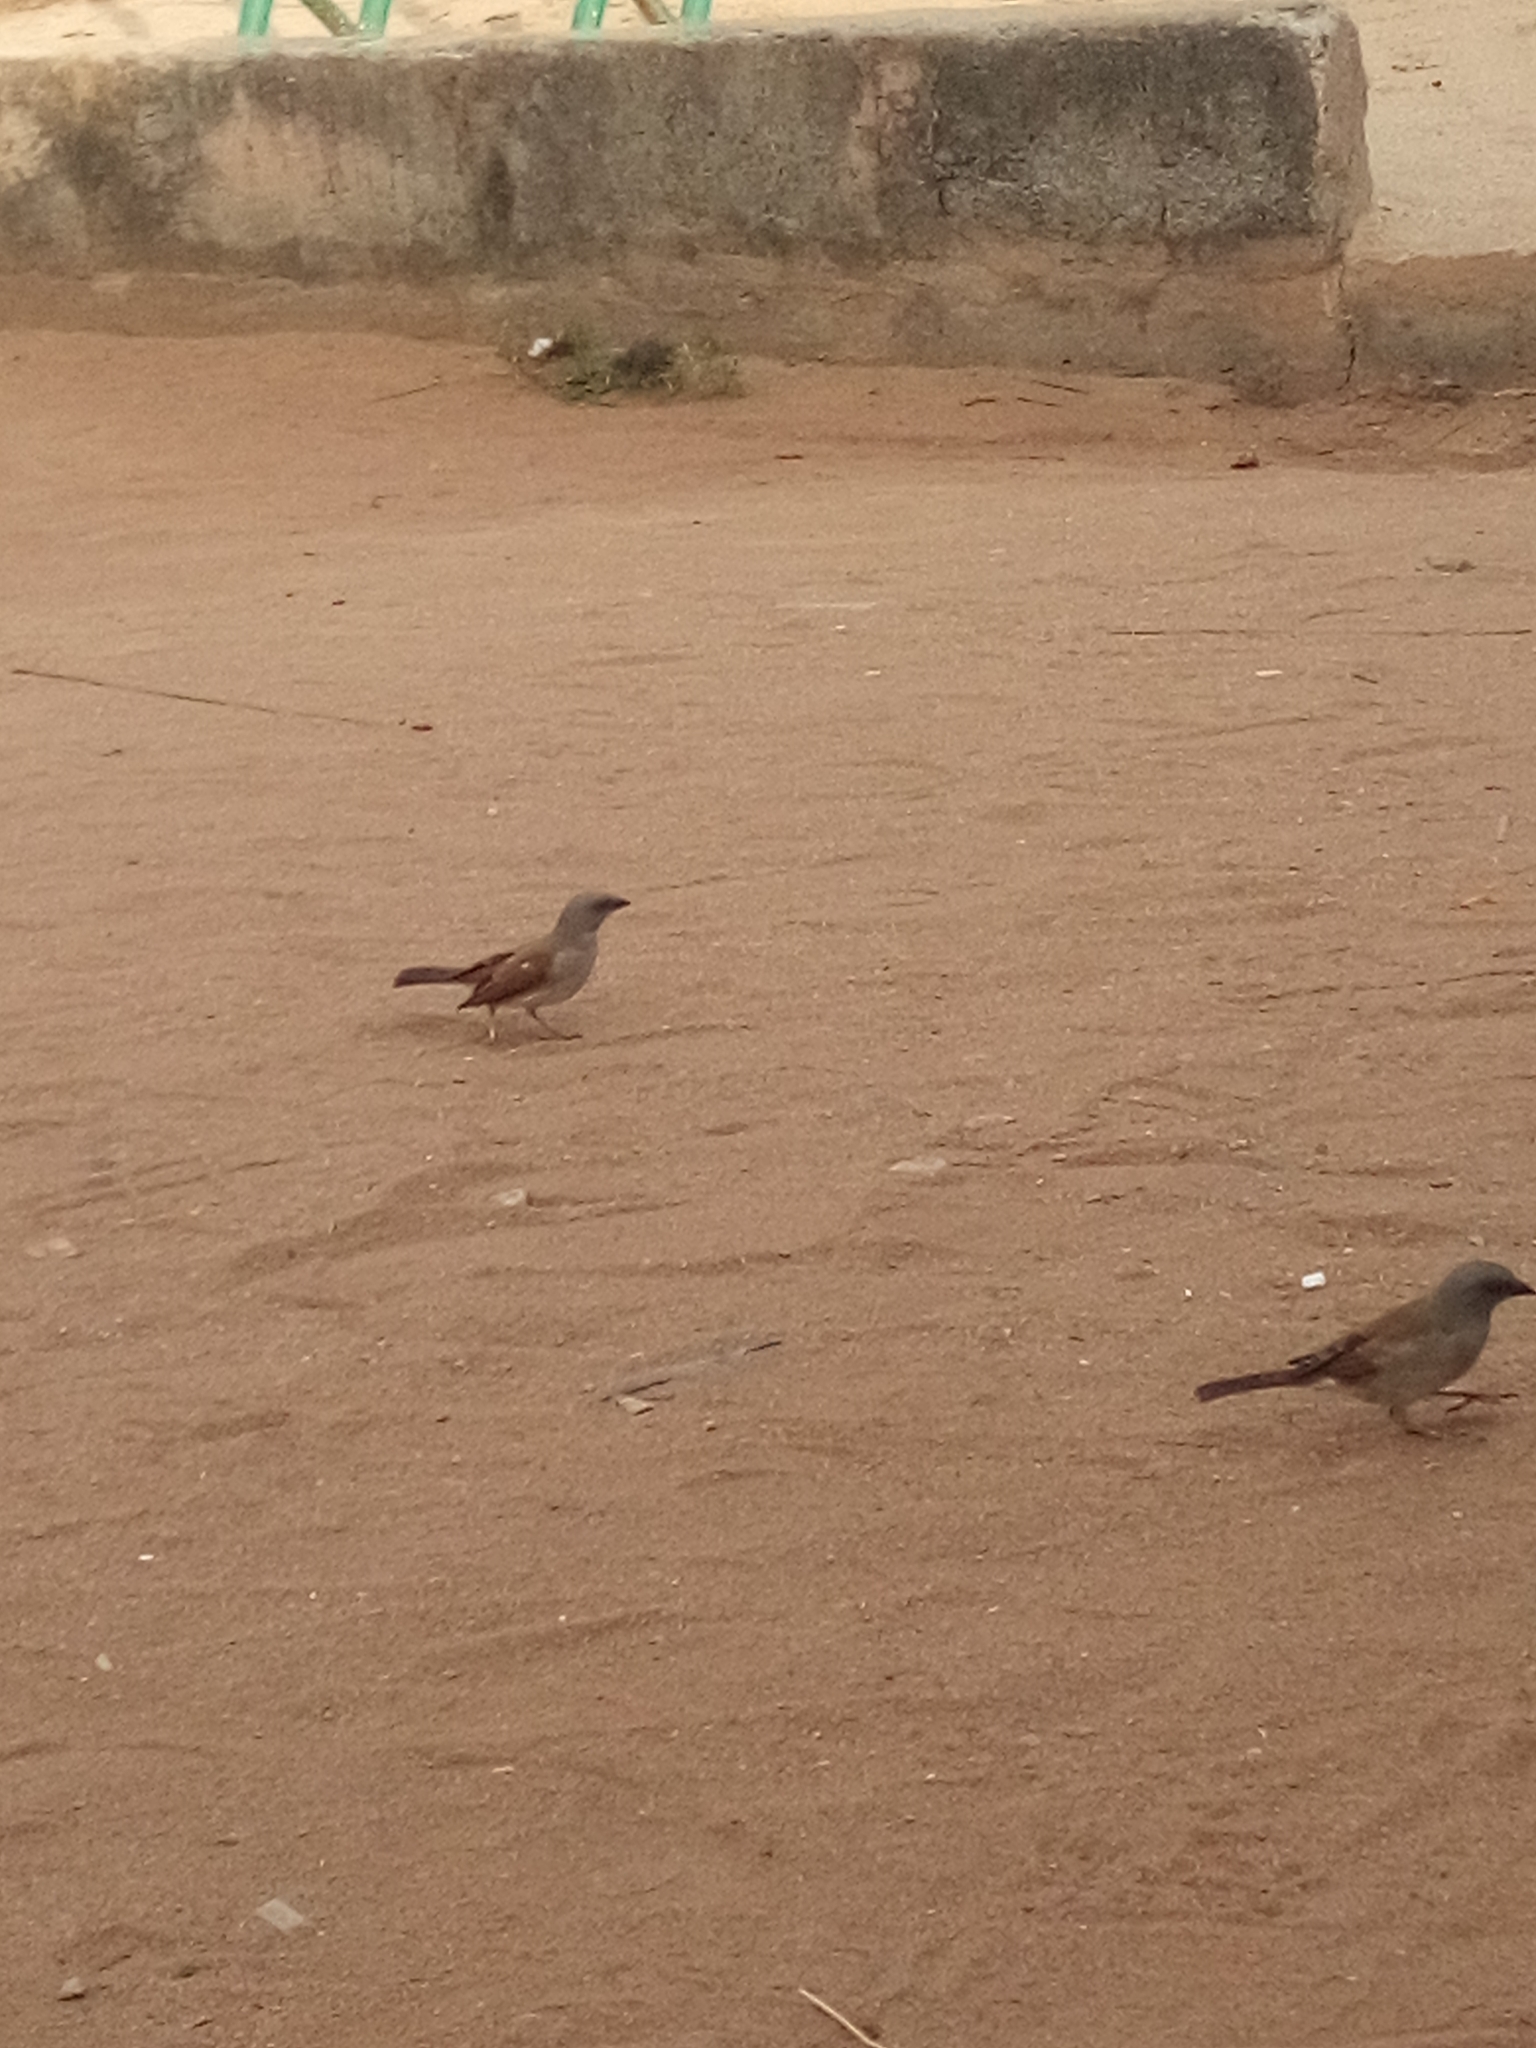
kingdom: Animalia
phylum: Chordata
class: Aves
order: Passeriformes
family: Passeridae
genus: Passer
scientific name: Passer griseus
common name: Northern grey-headed sparrow
